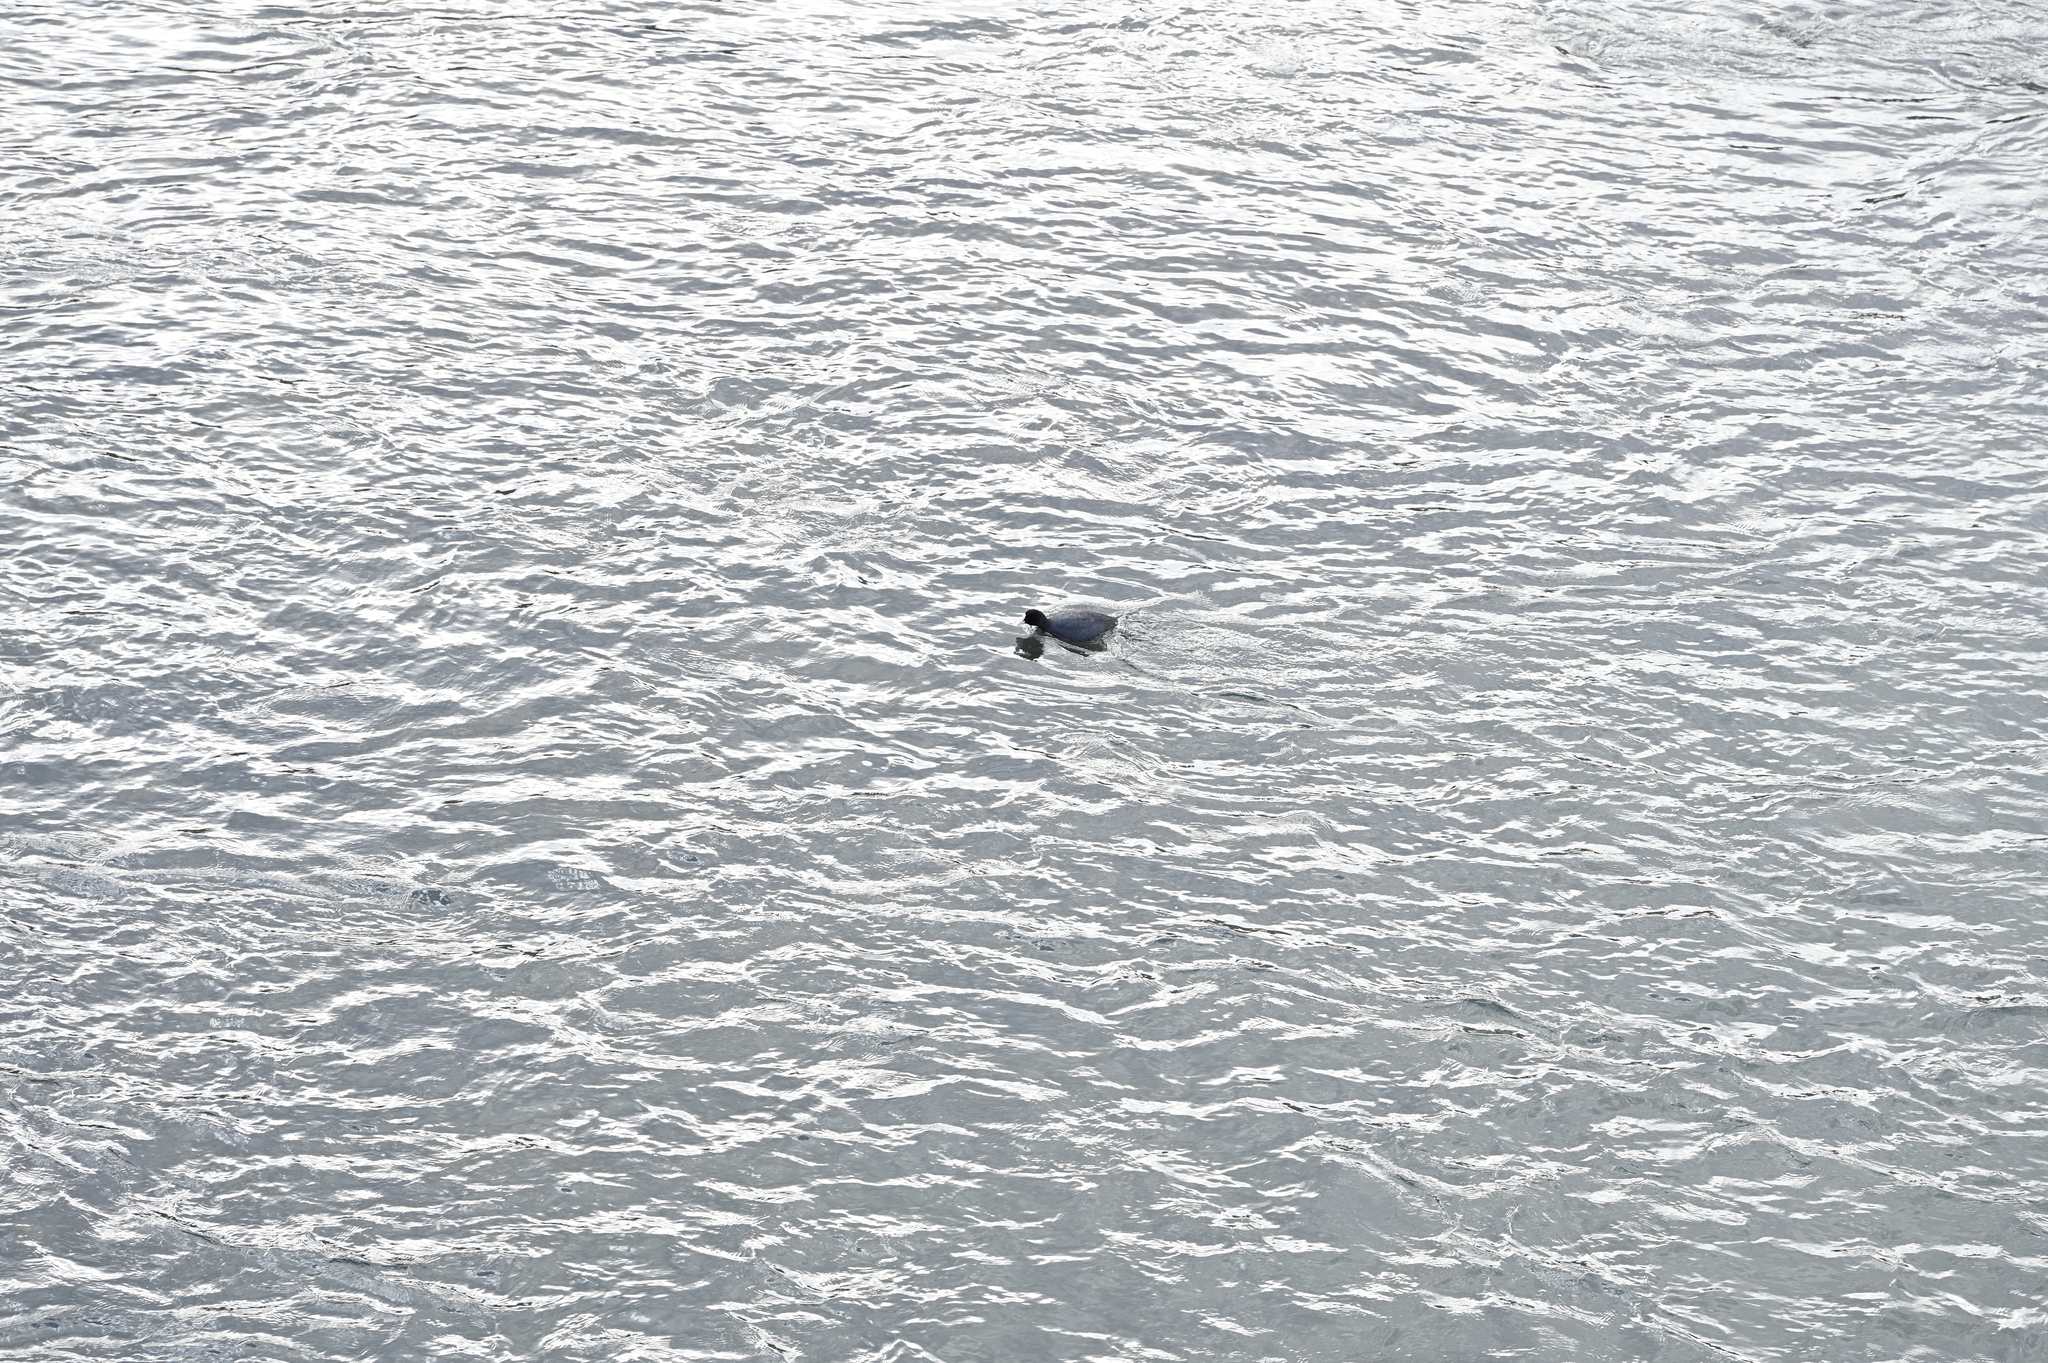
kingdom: Animalia
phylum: Chordata
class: Aves
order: Gruiformes
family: Rallidae
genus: Fulica
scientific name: Fulica atra
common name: Eurasian coot
